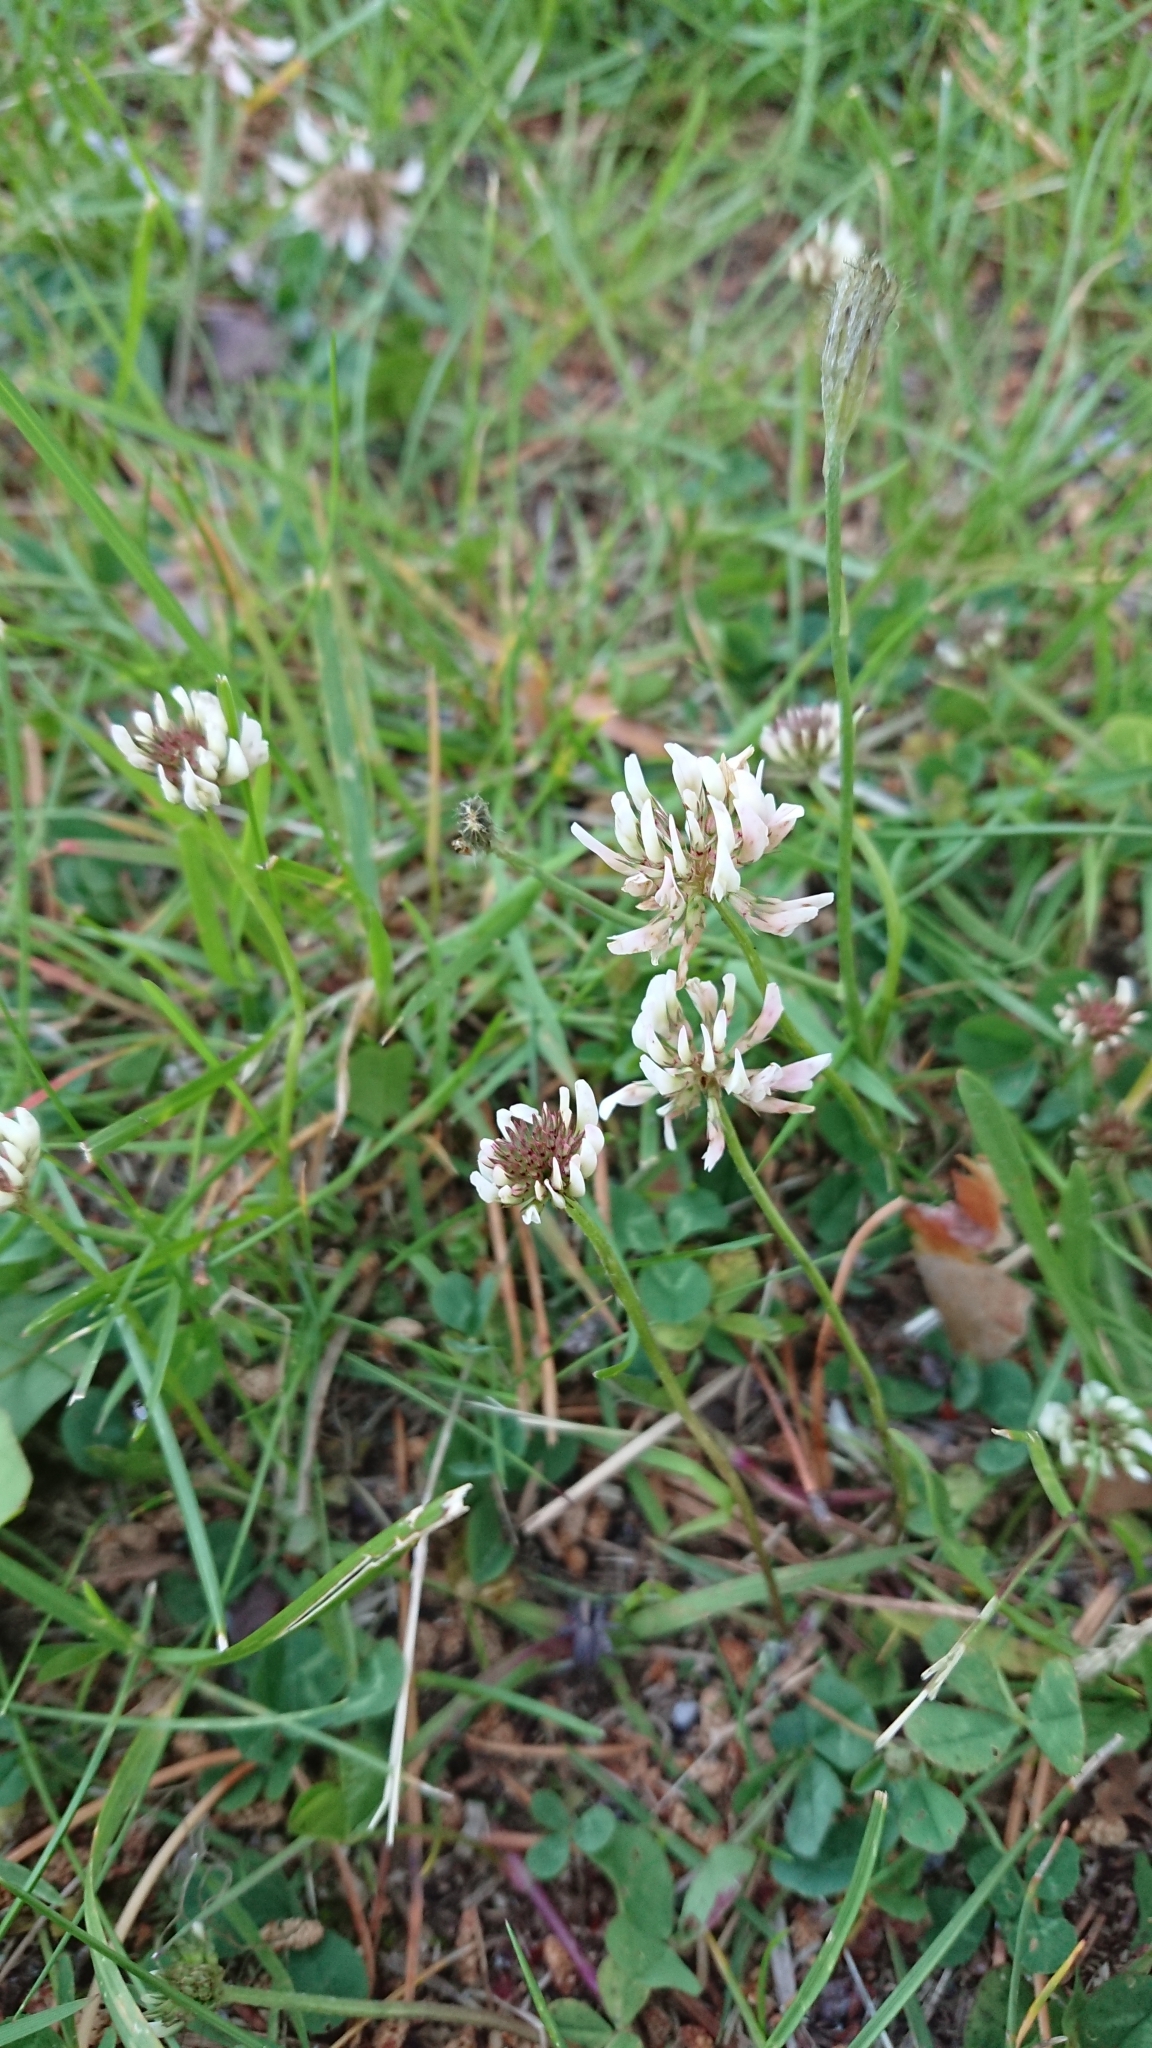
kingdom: Plantae
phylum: Tracheophyta
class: Magnoliopsida
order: Fabales
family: Fabaceae
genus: Trifolium
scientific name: Trifolium repens
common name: White clover
